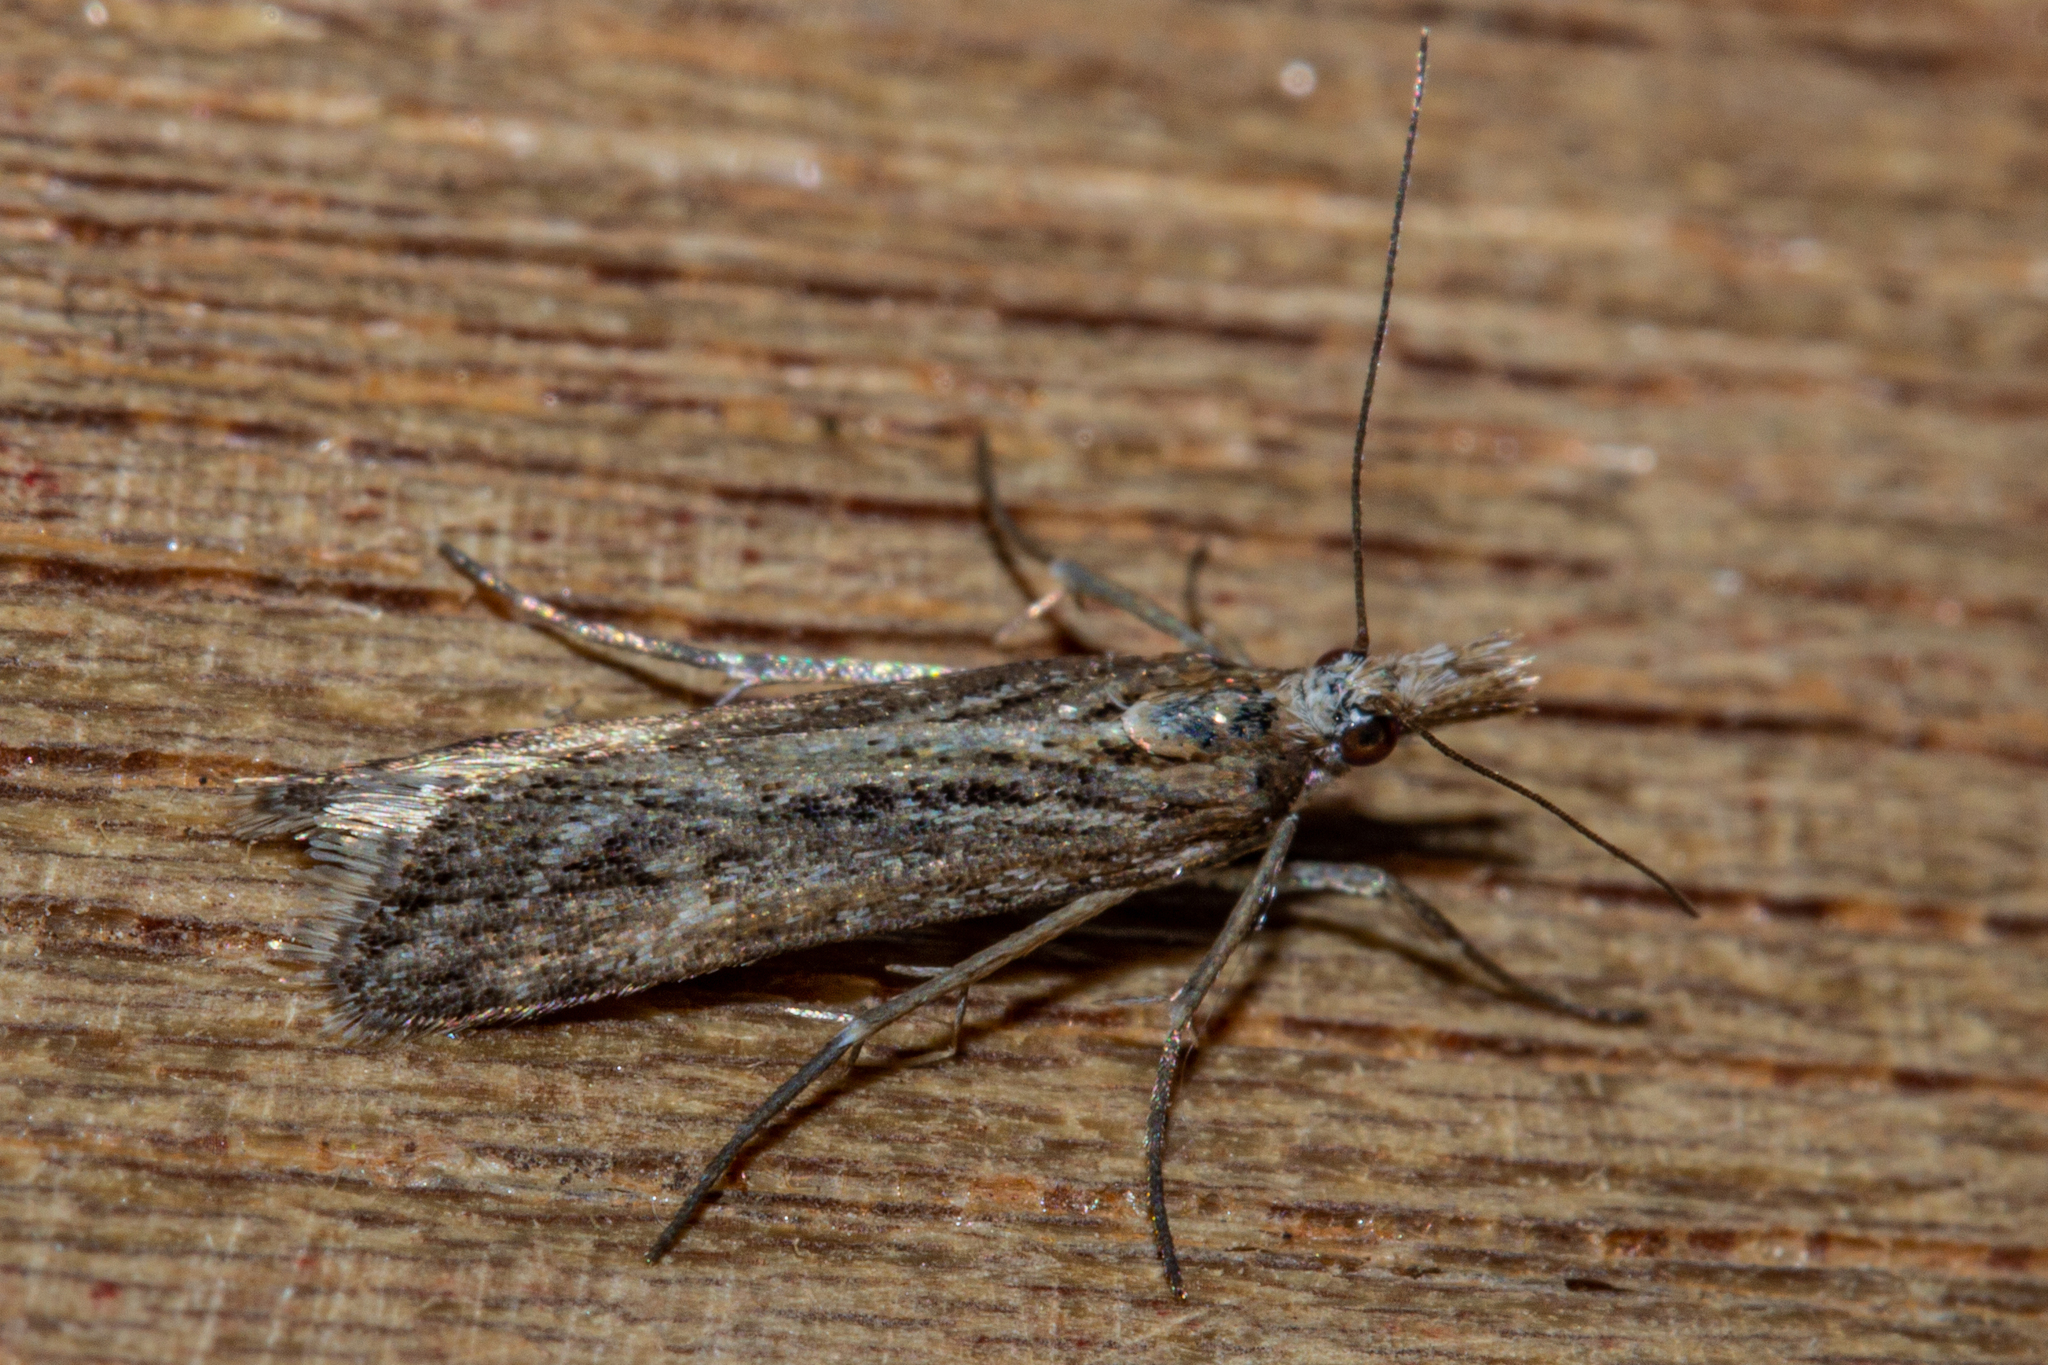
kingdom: Animalia
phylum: Arthropoda
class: Insecta
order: Lepidoptera
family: Crambidae
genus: Scoparia
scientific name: Scoparia exilis
